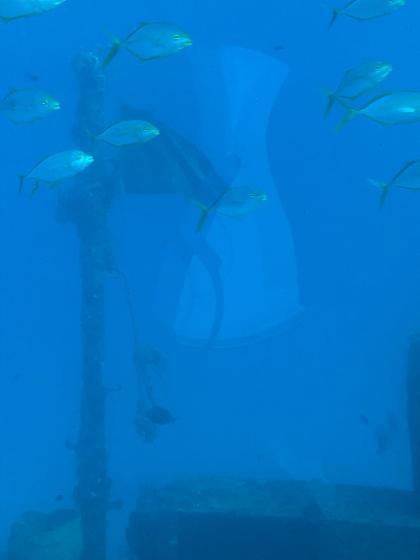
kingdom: Animalia
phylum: Chordata
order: Perciformes
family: Carangidae
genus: Carangoides
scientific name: Carangoides bartholomaei
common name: Yellow jack
